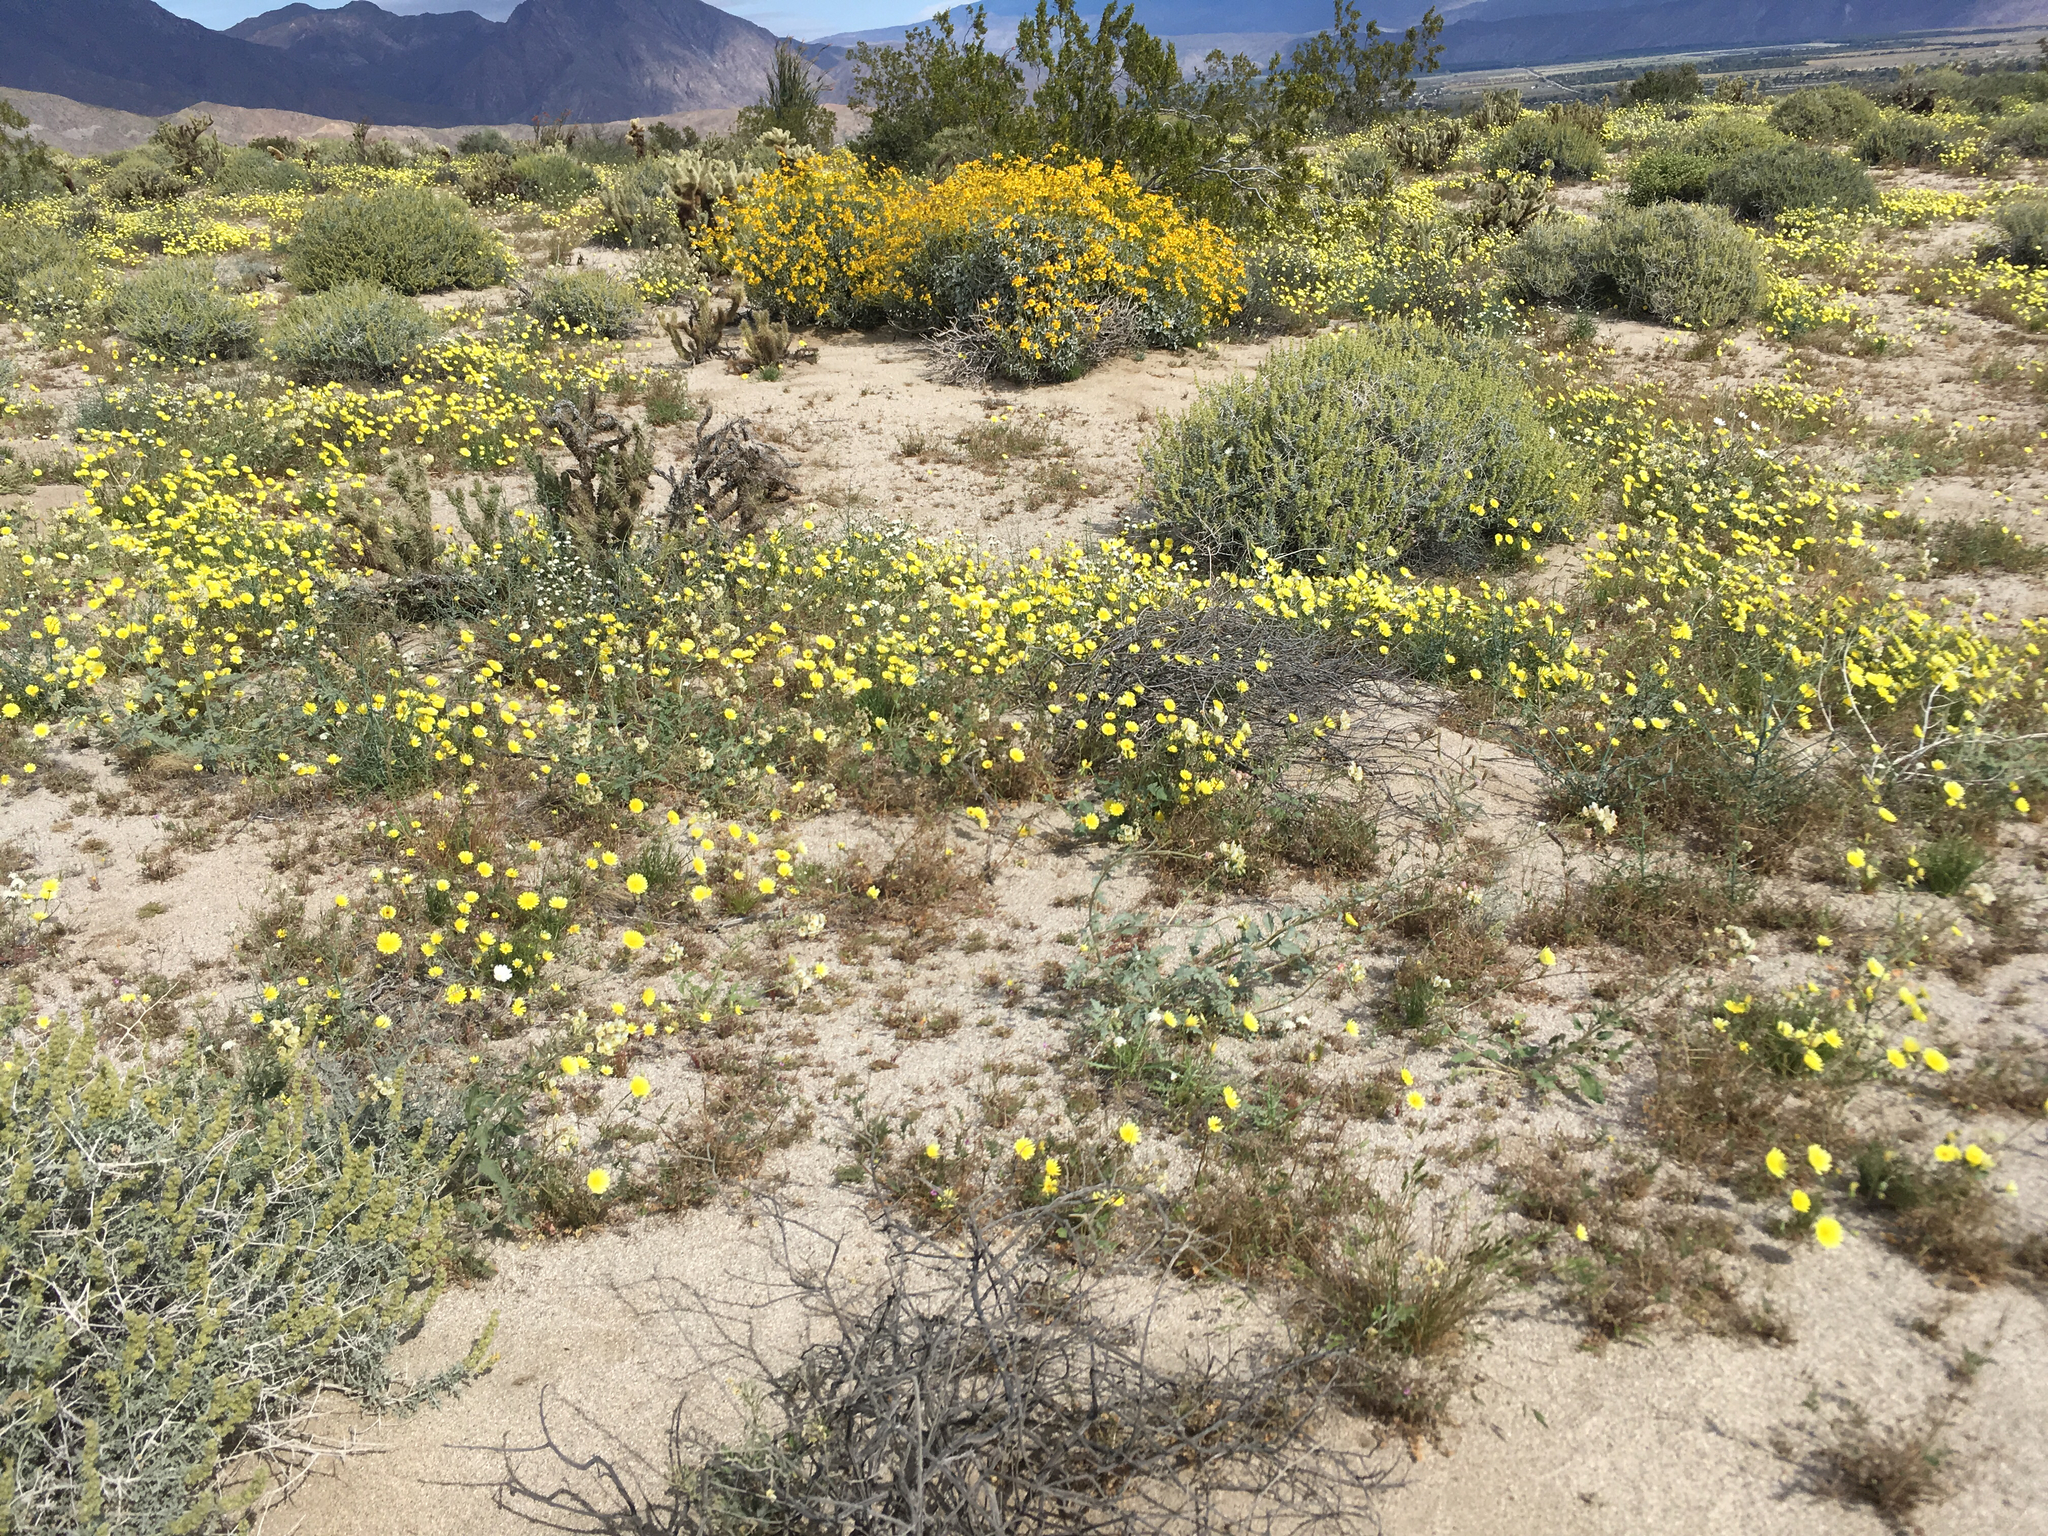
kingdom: Plantae
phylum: Tracheophyta
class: Magnoliopsida
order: Asterales
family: Asteraceae
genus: Malacothrix
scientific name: Malacothrix glabrata
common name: Smooth desert-dandelion
